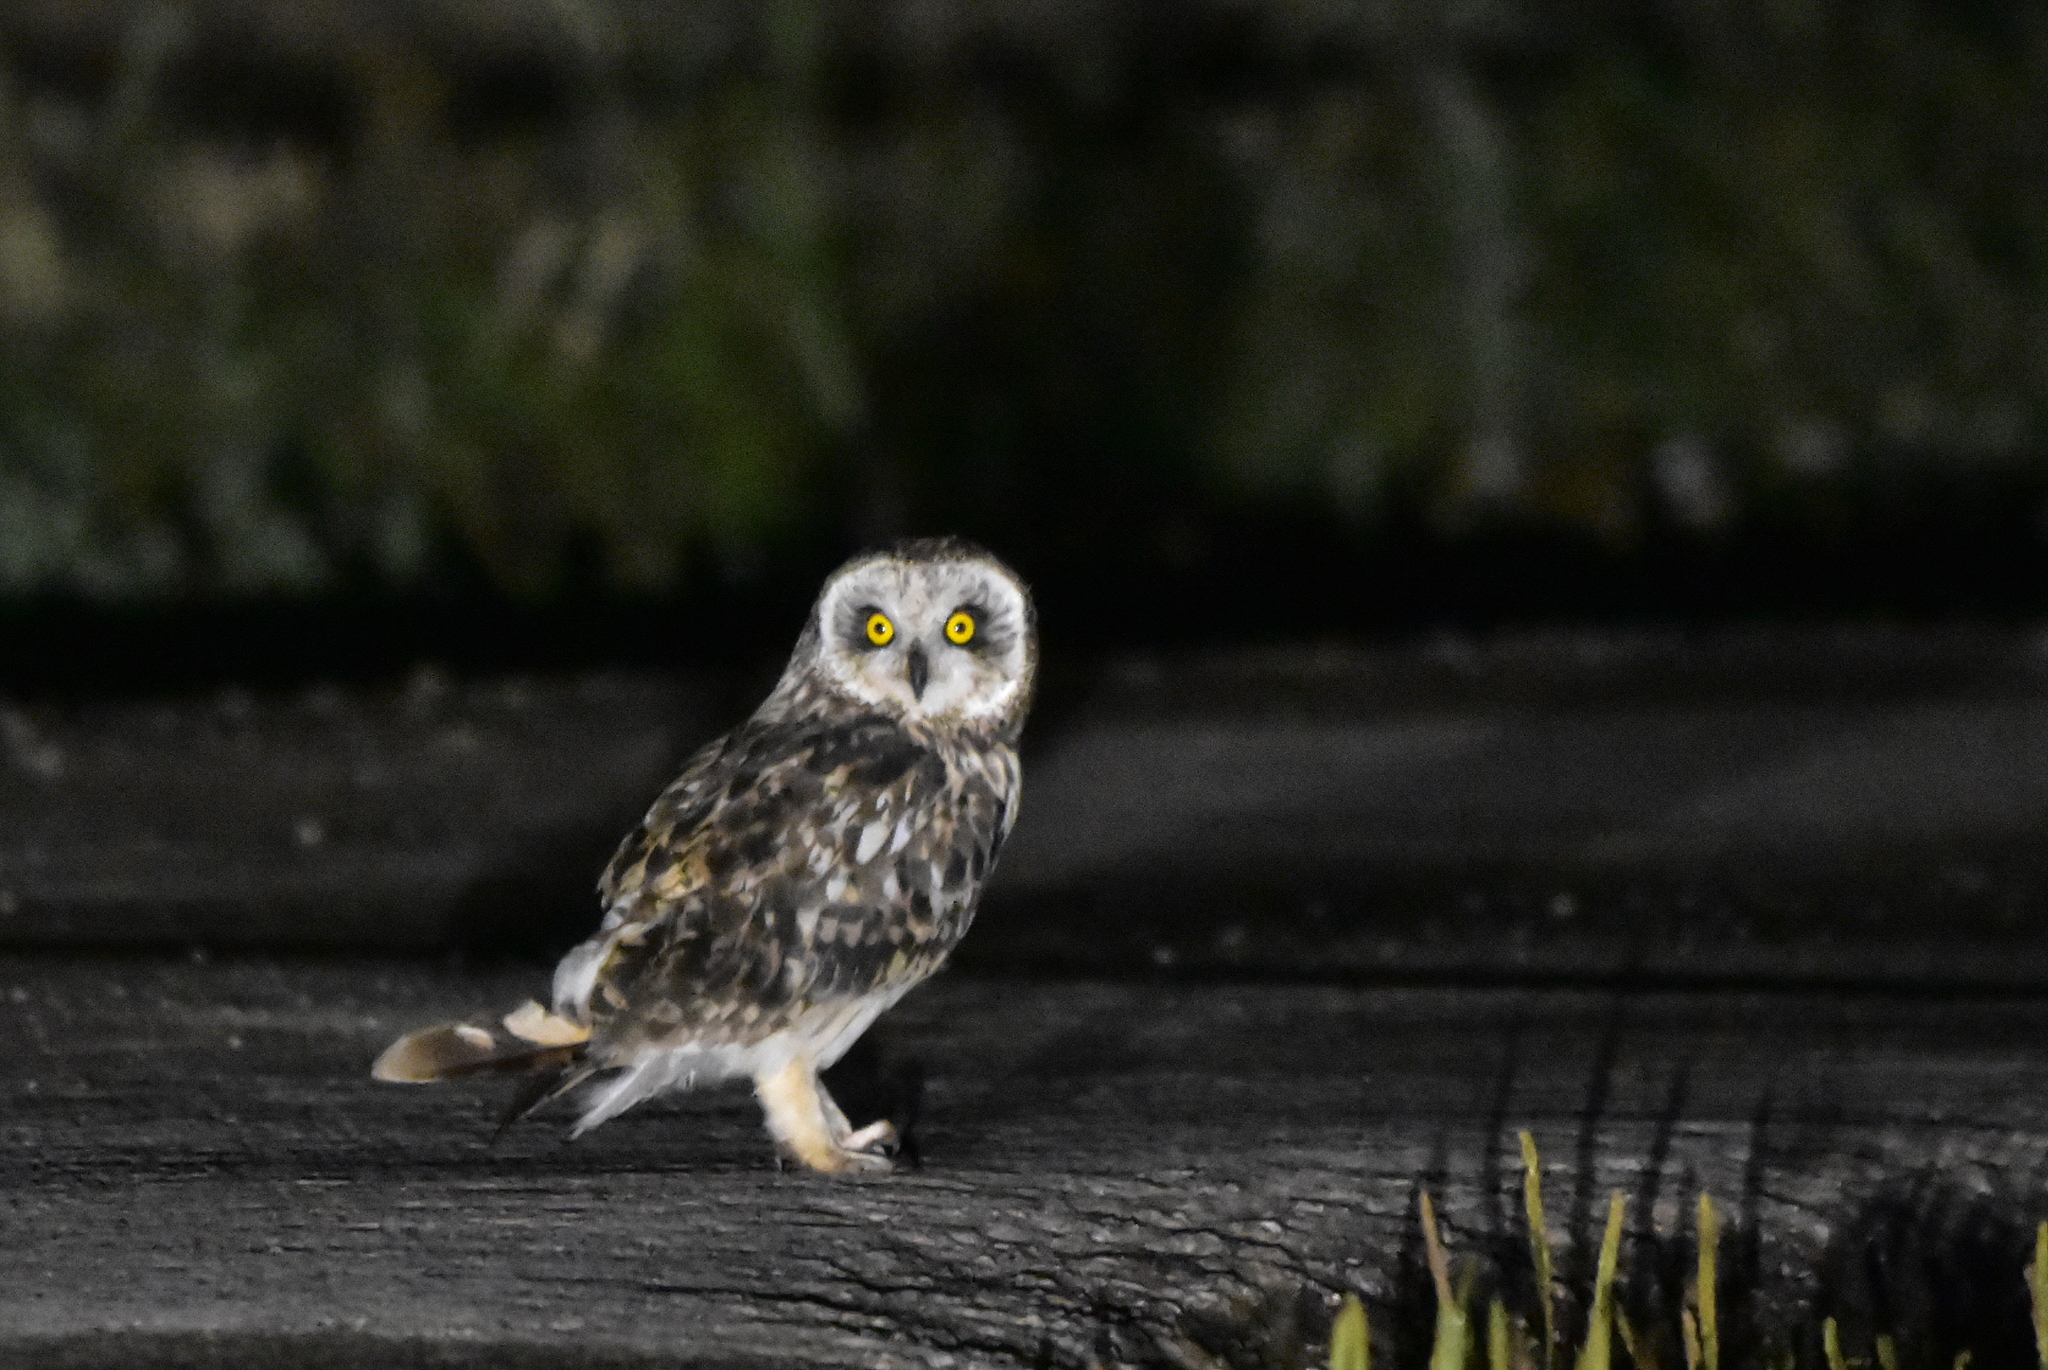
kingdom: Animalia
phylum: Chordata
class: Aves
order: Strigiformes
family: Strigidae
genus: Asio
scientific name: Asio flammeus
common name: Short-eared owl
